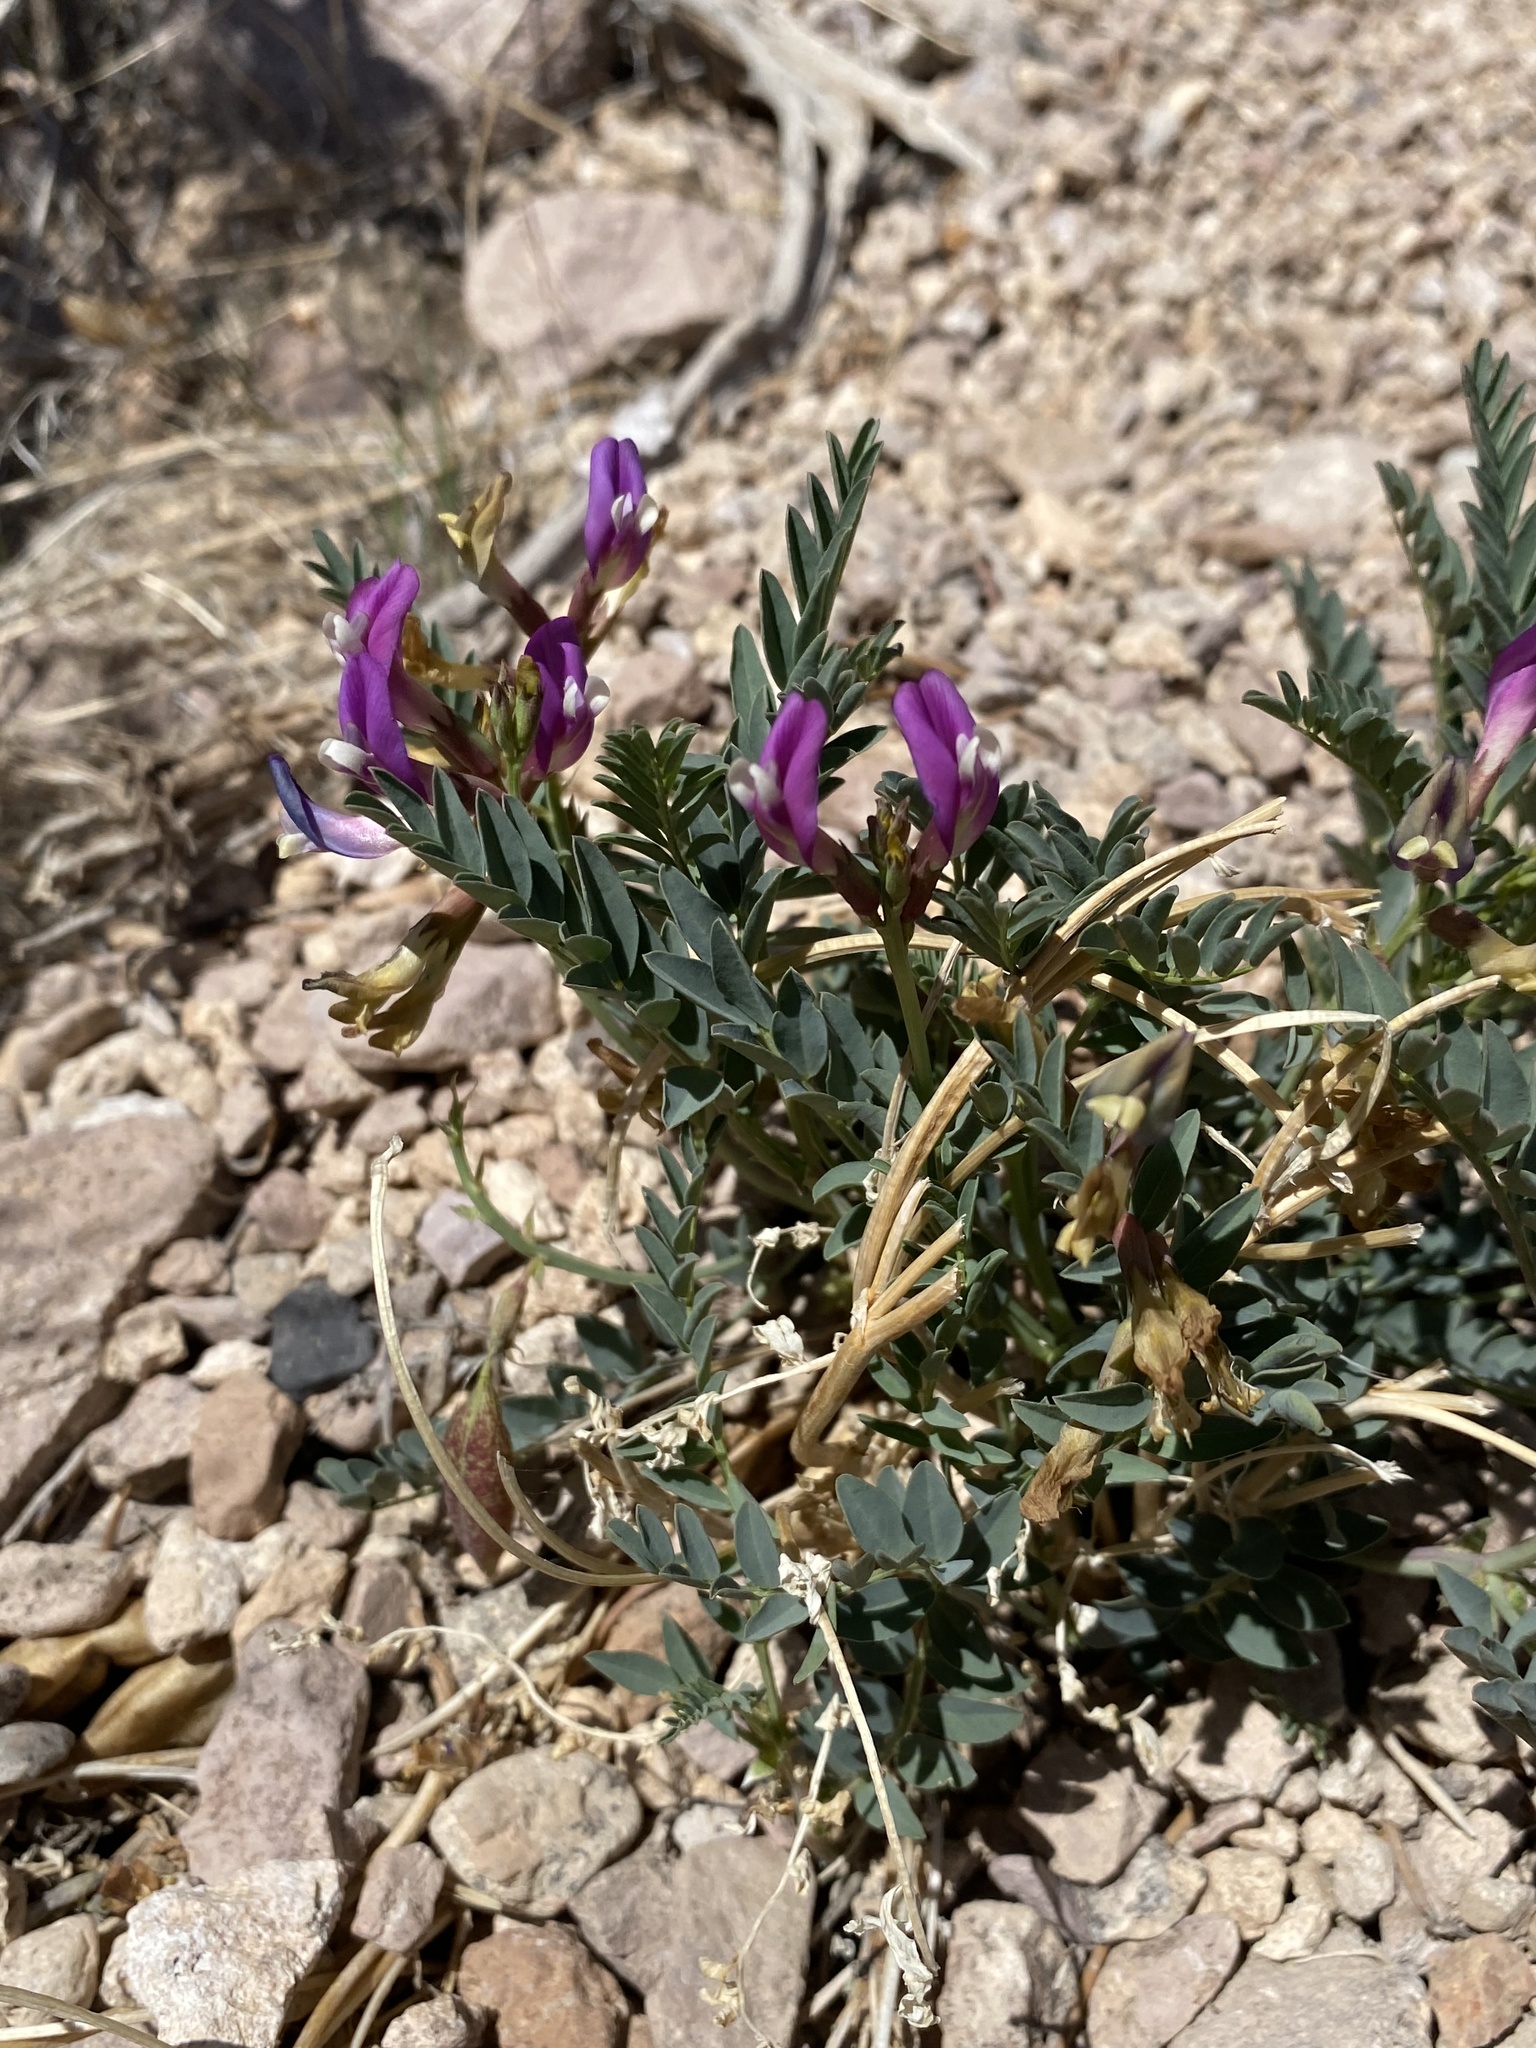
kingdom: Plantae
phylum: Tracheophyta
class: Magnoliopsida
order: Fabales
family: Fabaceae
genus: Astragalus
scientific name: Astragalus oophorus
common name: Egg milkvetch
